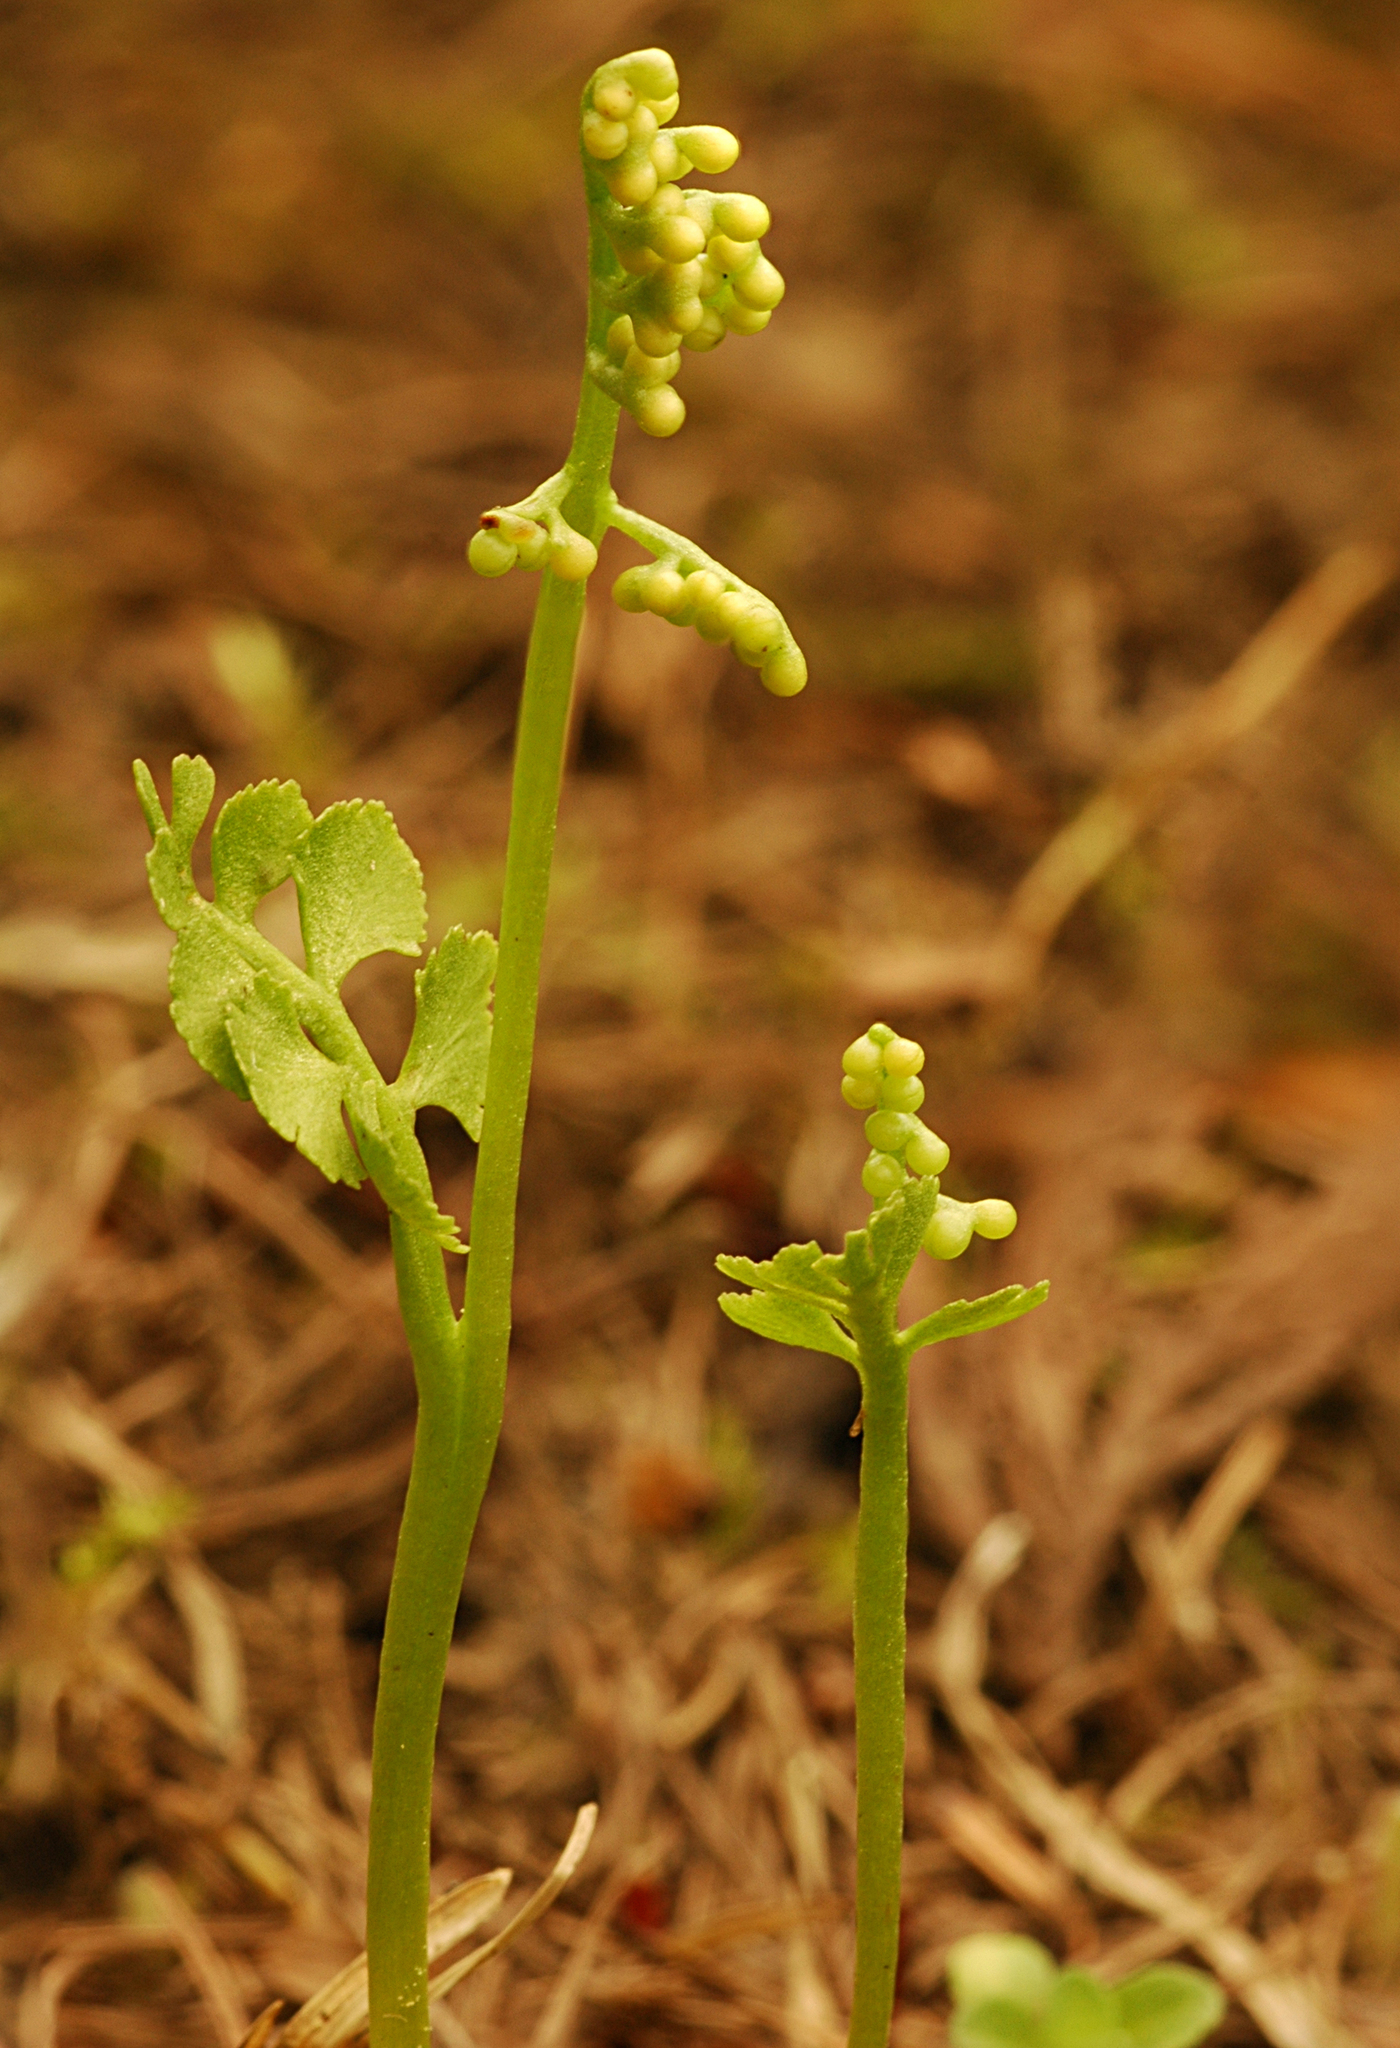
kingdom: Plantae
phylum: Tracheophyta
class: Polypodiopsida
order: Ophioglossales
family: Ophioglossaceae
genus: Botrychium
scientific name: Botrychium crenulatum
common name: Crenulate moonwort
